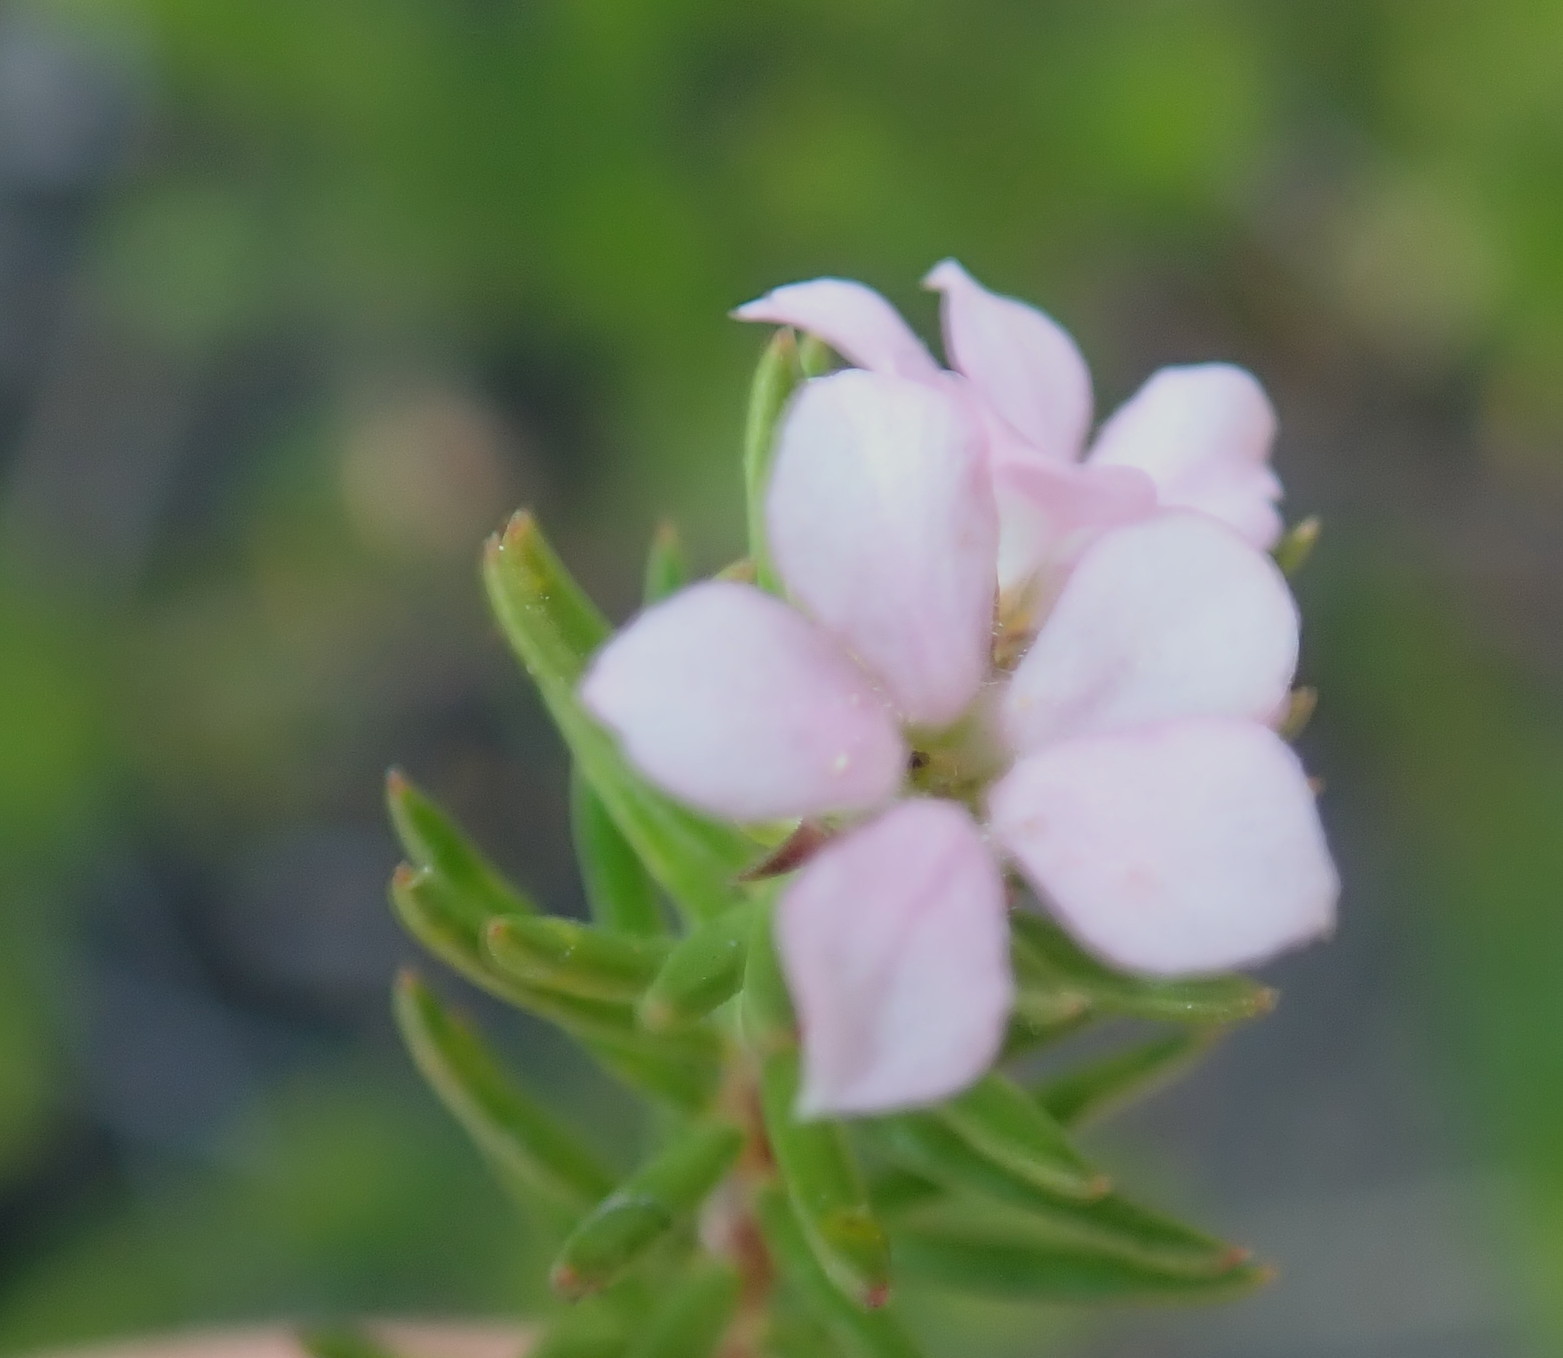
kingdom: Plantae
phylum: Tracheophyta
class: Magnoliopsida
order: Sapindales
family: Rutaceae
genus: Acmadenia
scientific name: Acmadenia alternifolia
